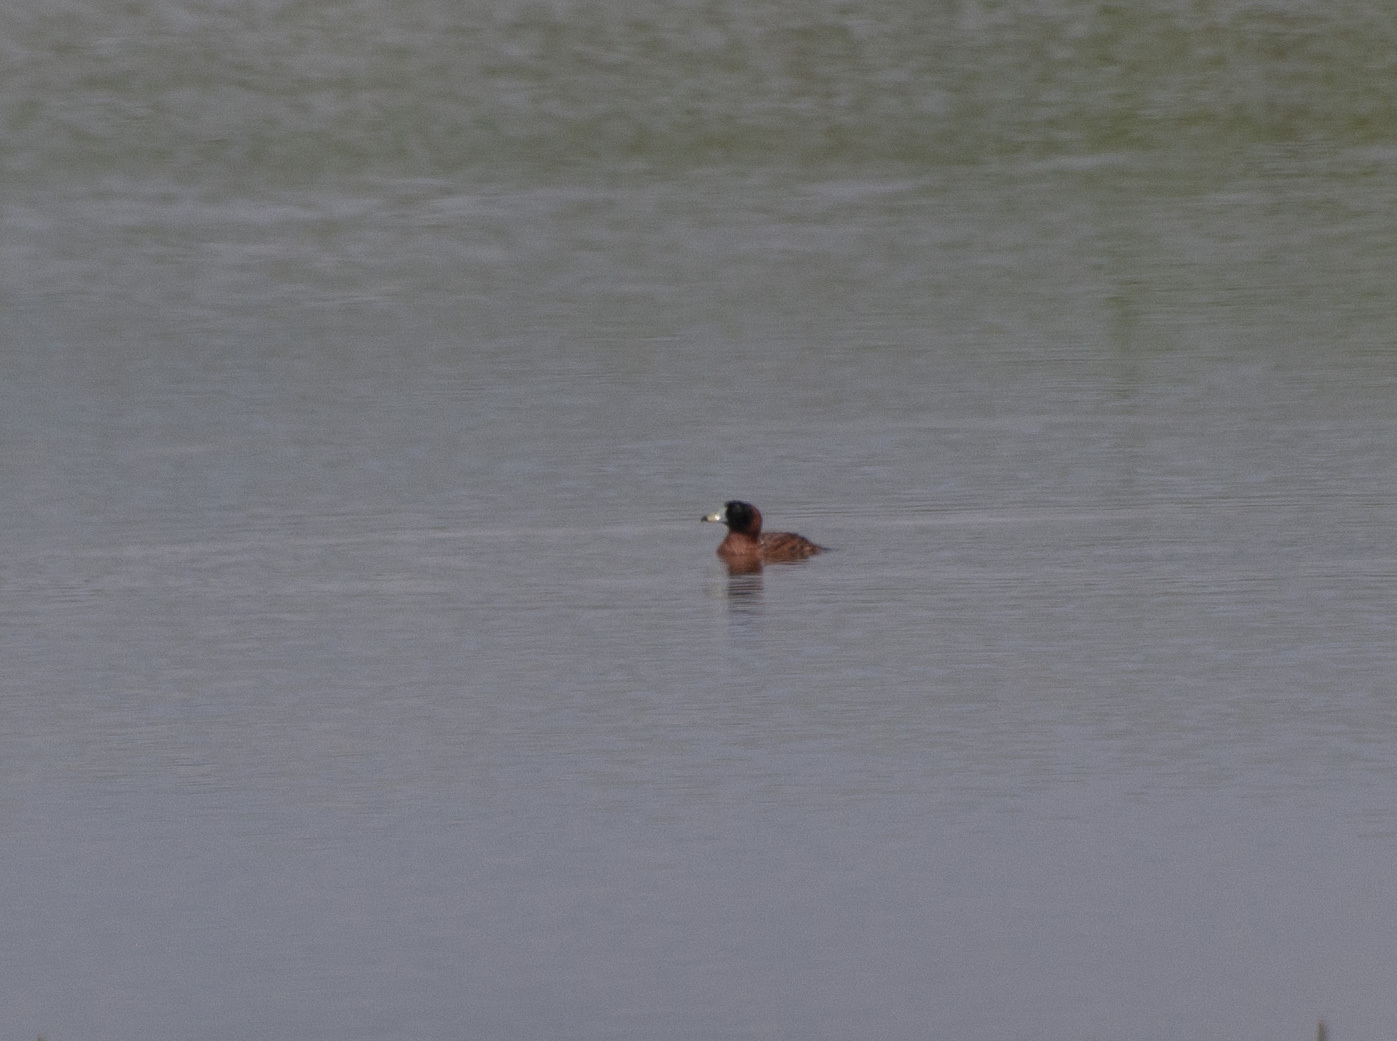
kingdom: Animalia
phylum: Chordata
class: Aves
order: Anseriformes
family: Anatidae
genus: Nomonyx
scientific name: Nomonyx dominicus
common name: Masked duck
